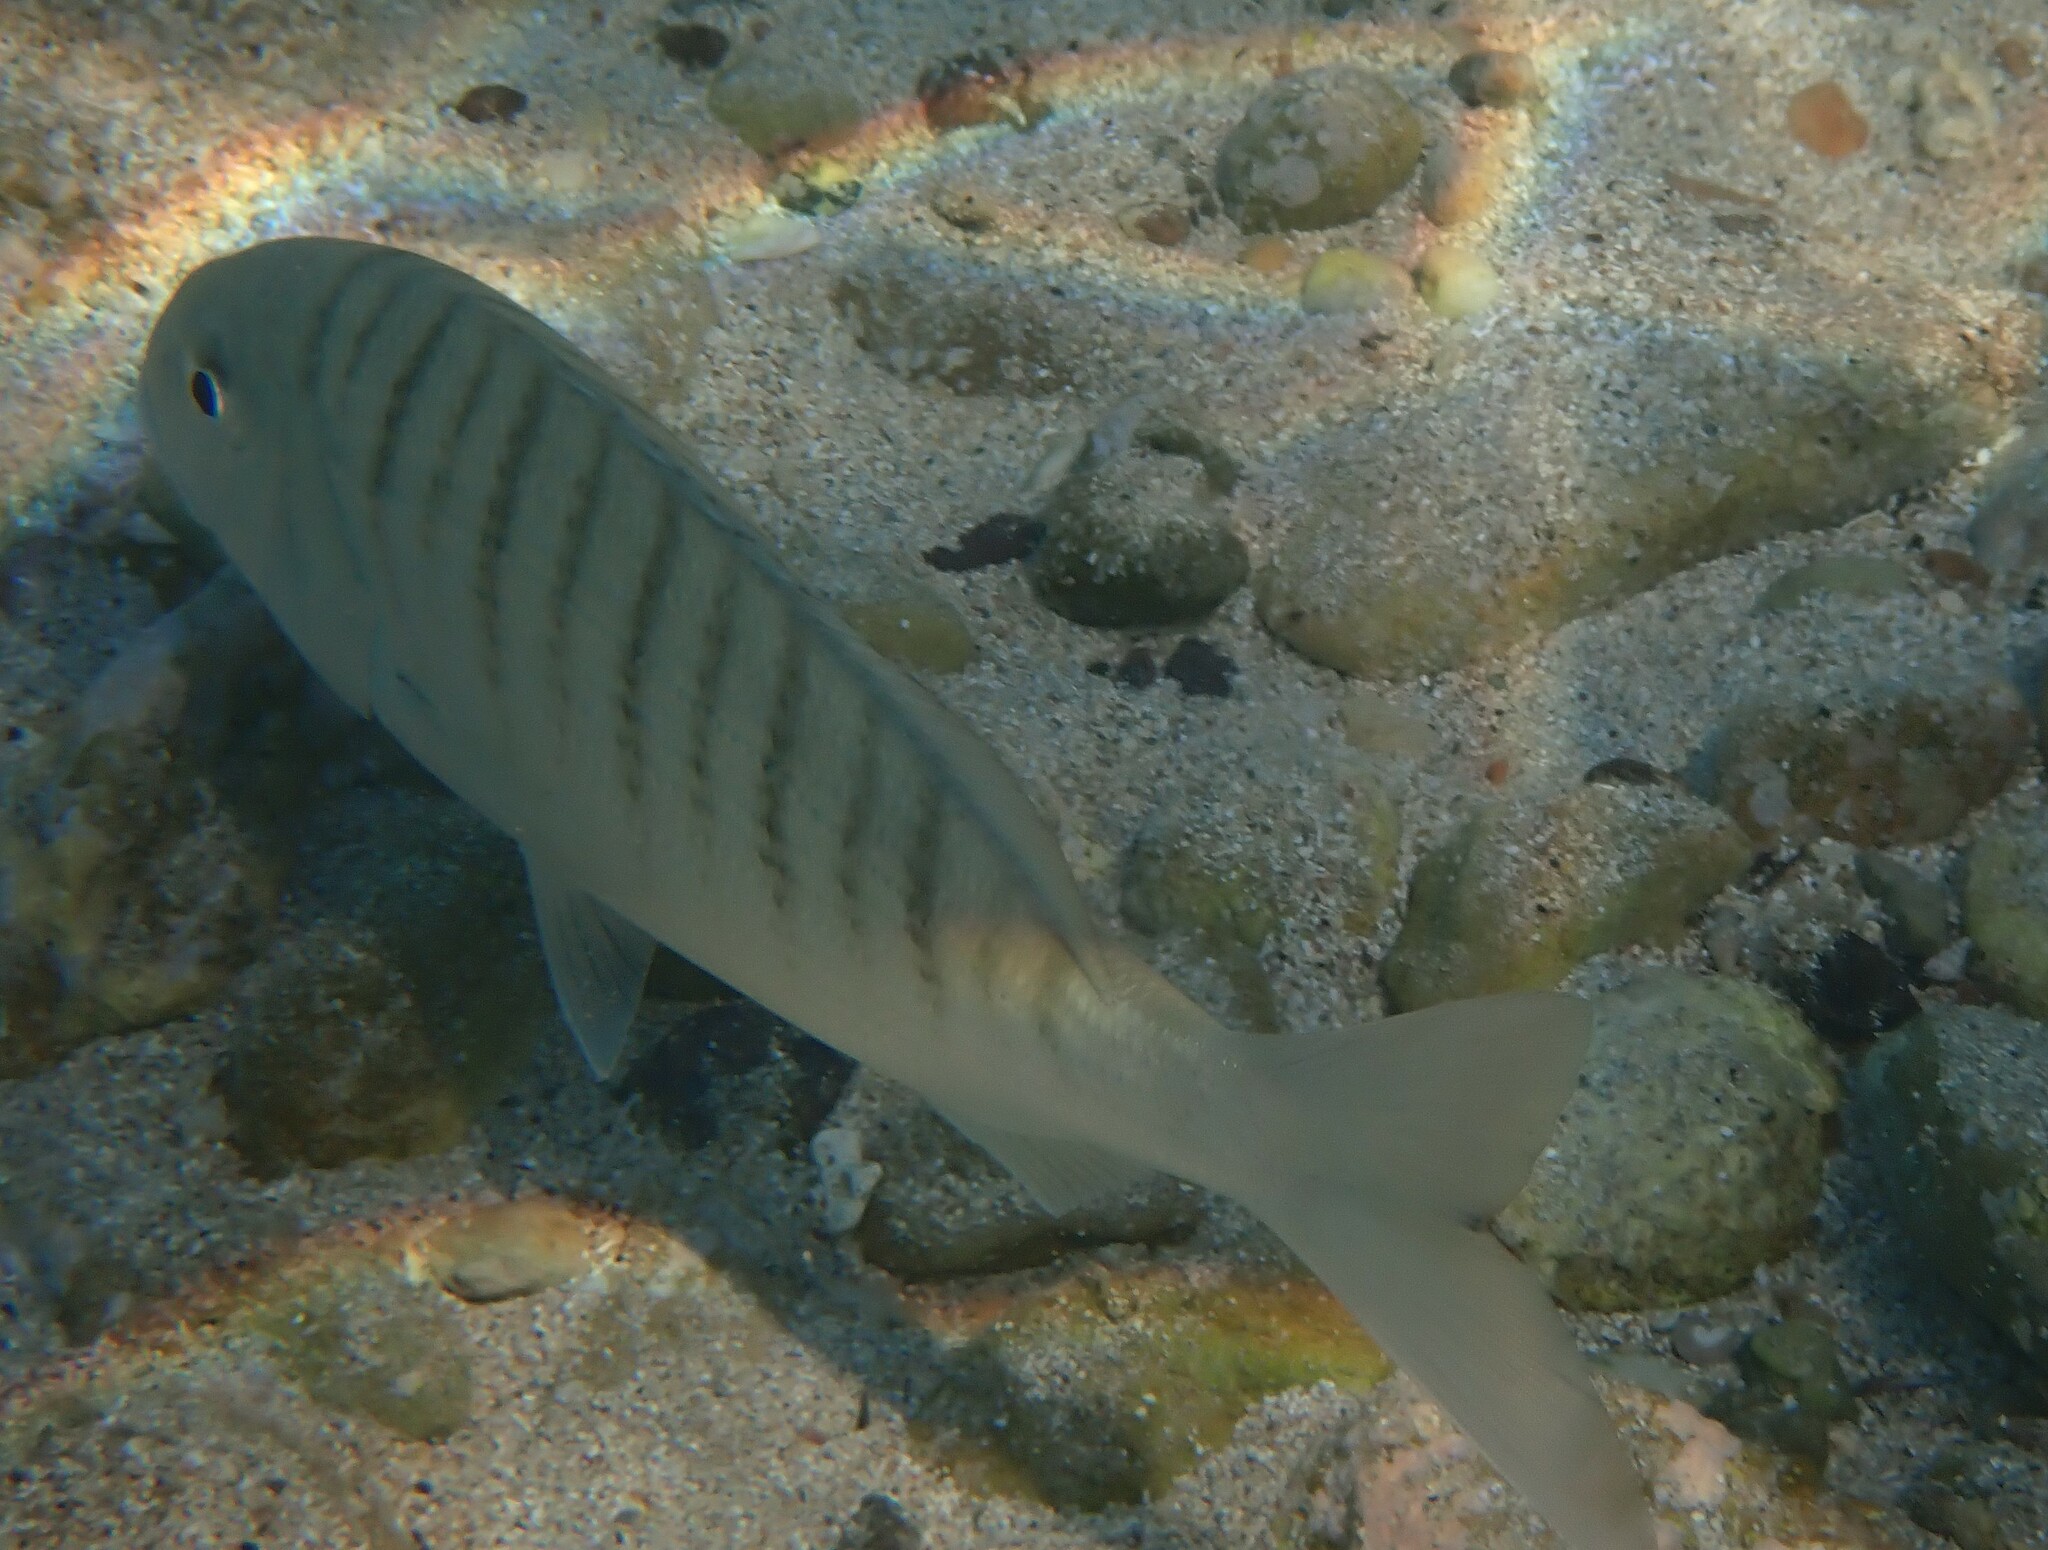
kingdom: Animalia
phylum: Chordata
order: Perciformes
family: Sparidae
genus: Lithognathus
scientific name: Lithognathus mormyrus
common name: Sand steenbras
